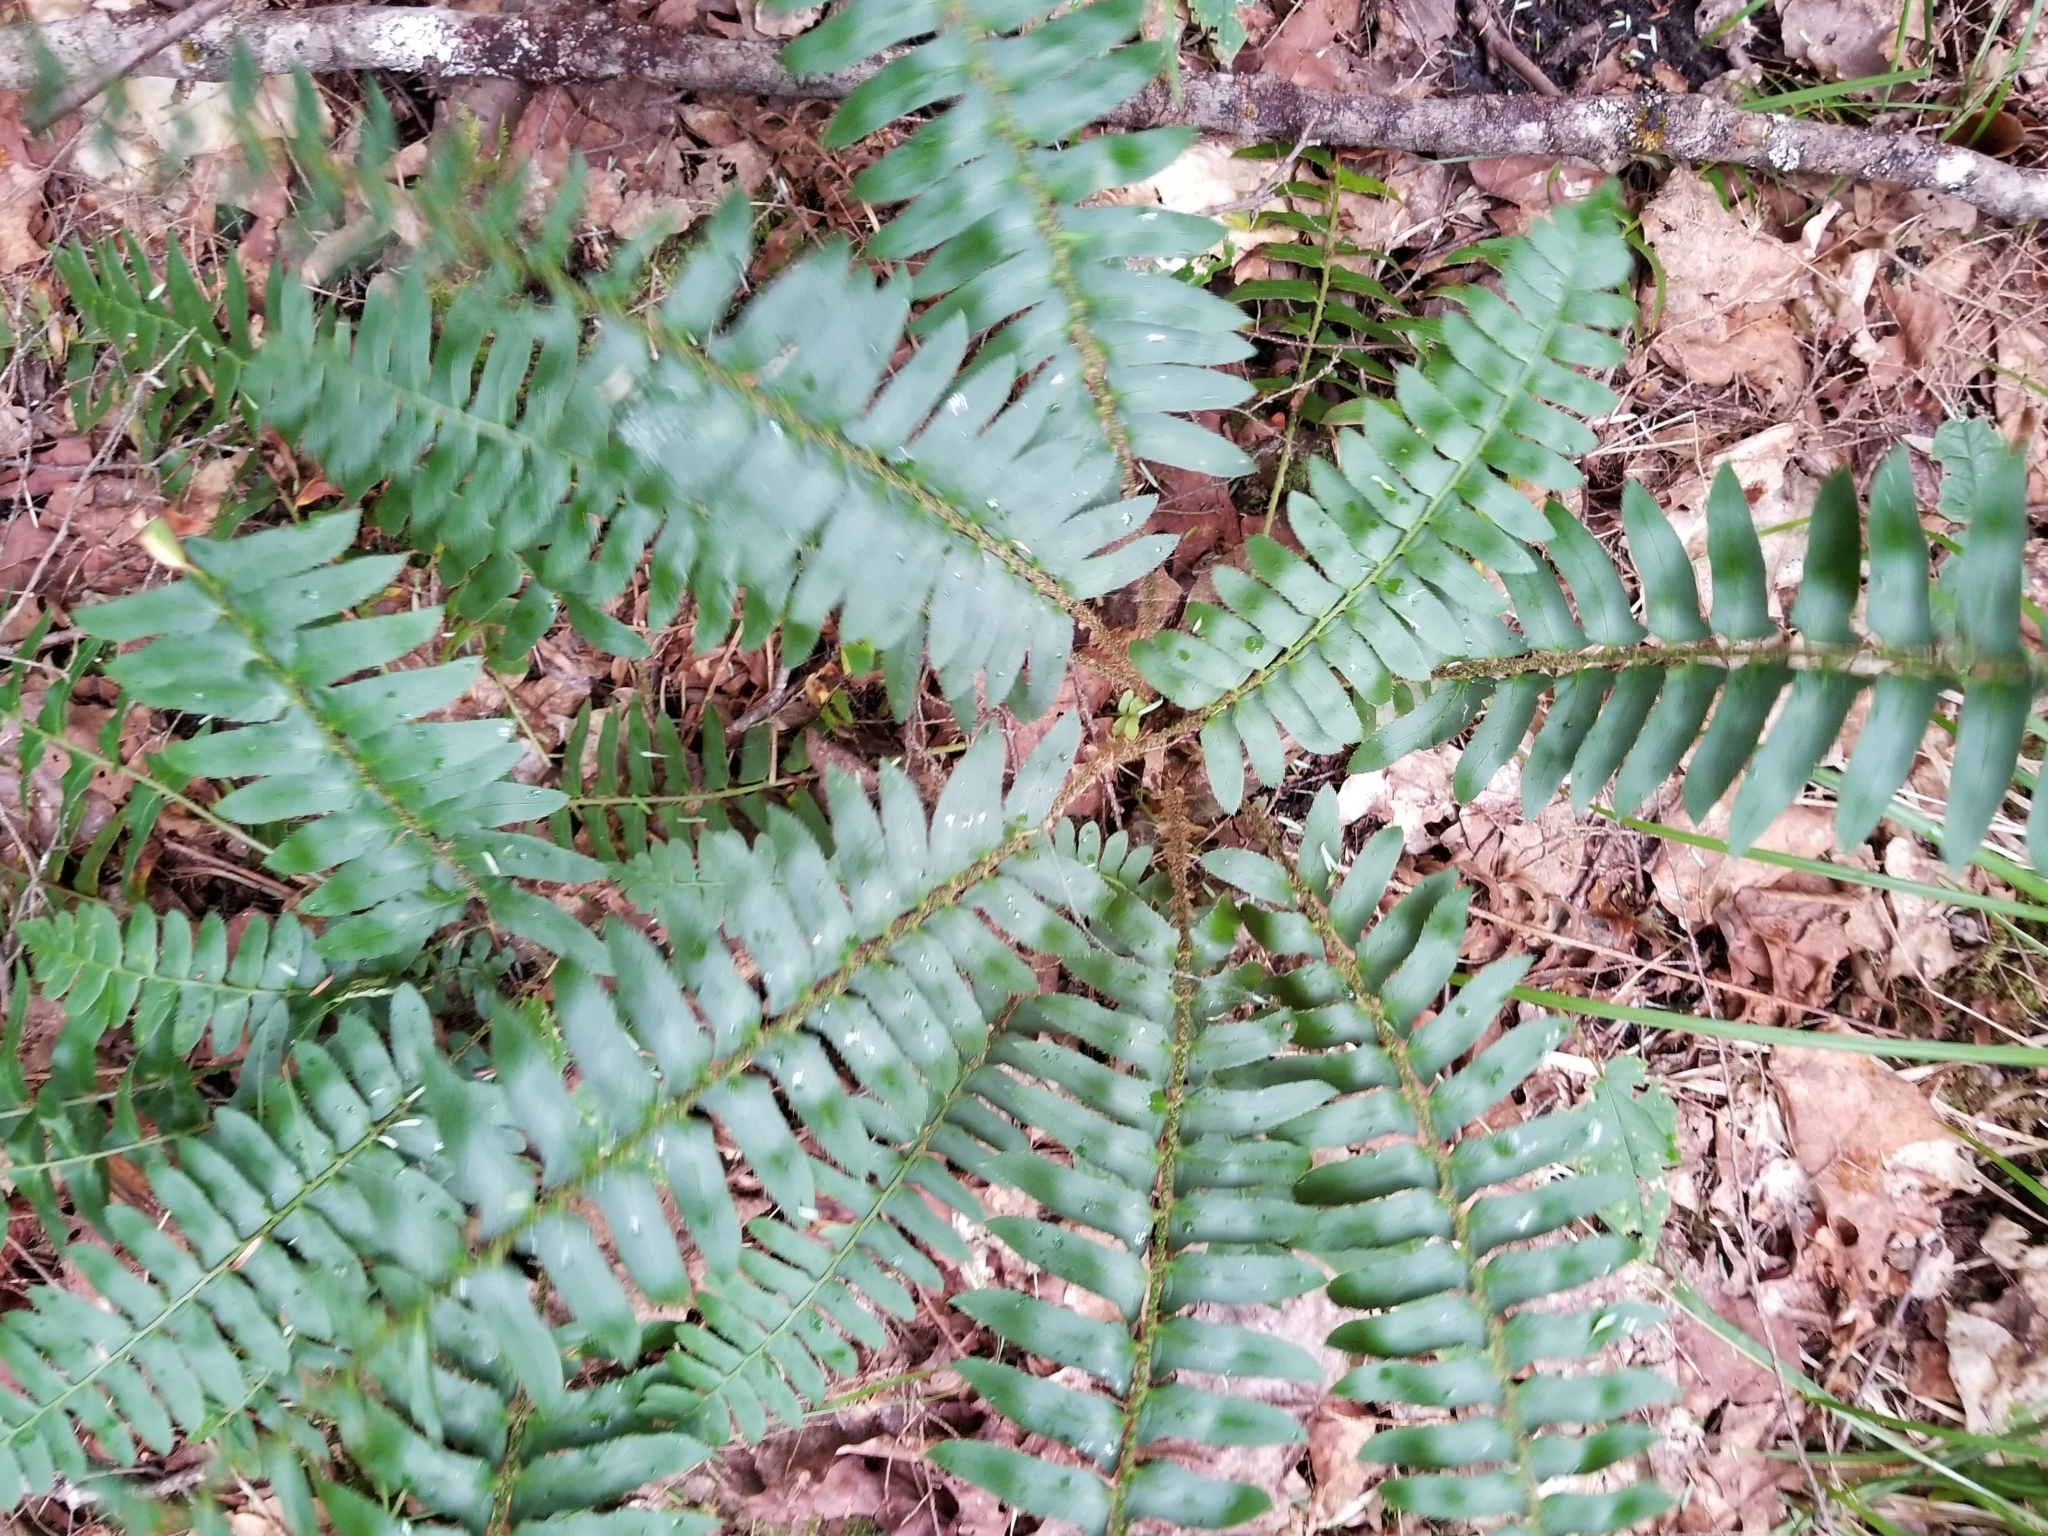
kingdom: Plantae
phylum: Tracheophyta
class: Polypodiopsida
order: Polypodiales
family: Dryopteridaceae
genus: Polystichum
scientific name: Polystichum acrostichoides
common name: Christmas fern
